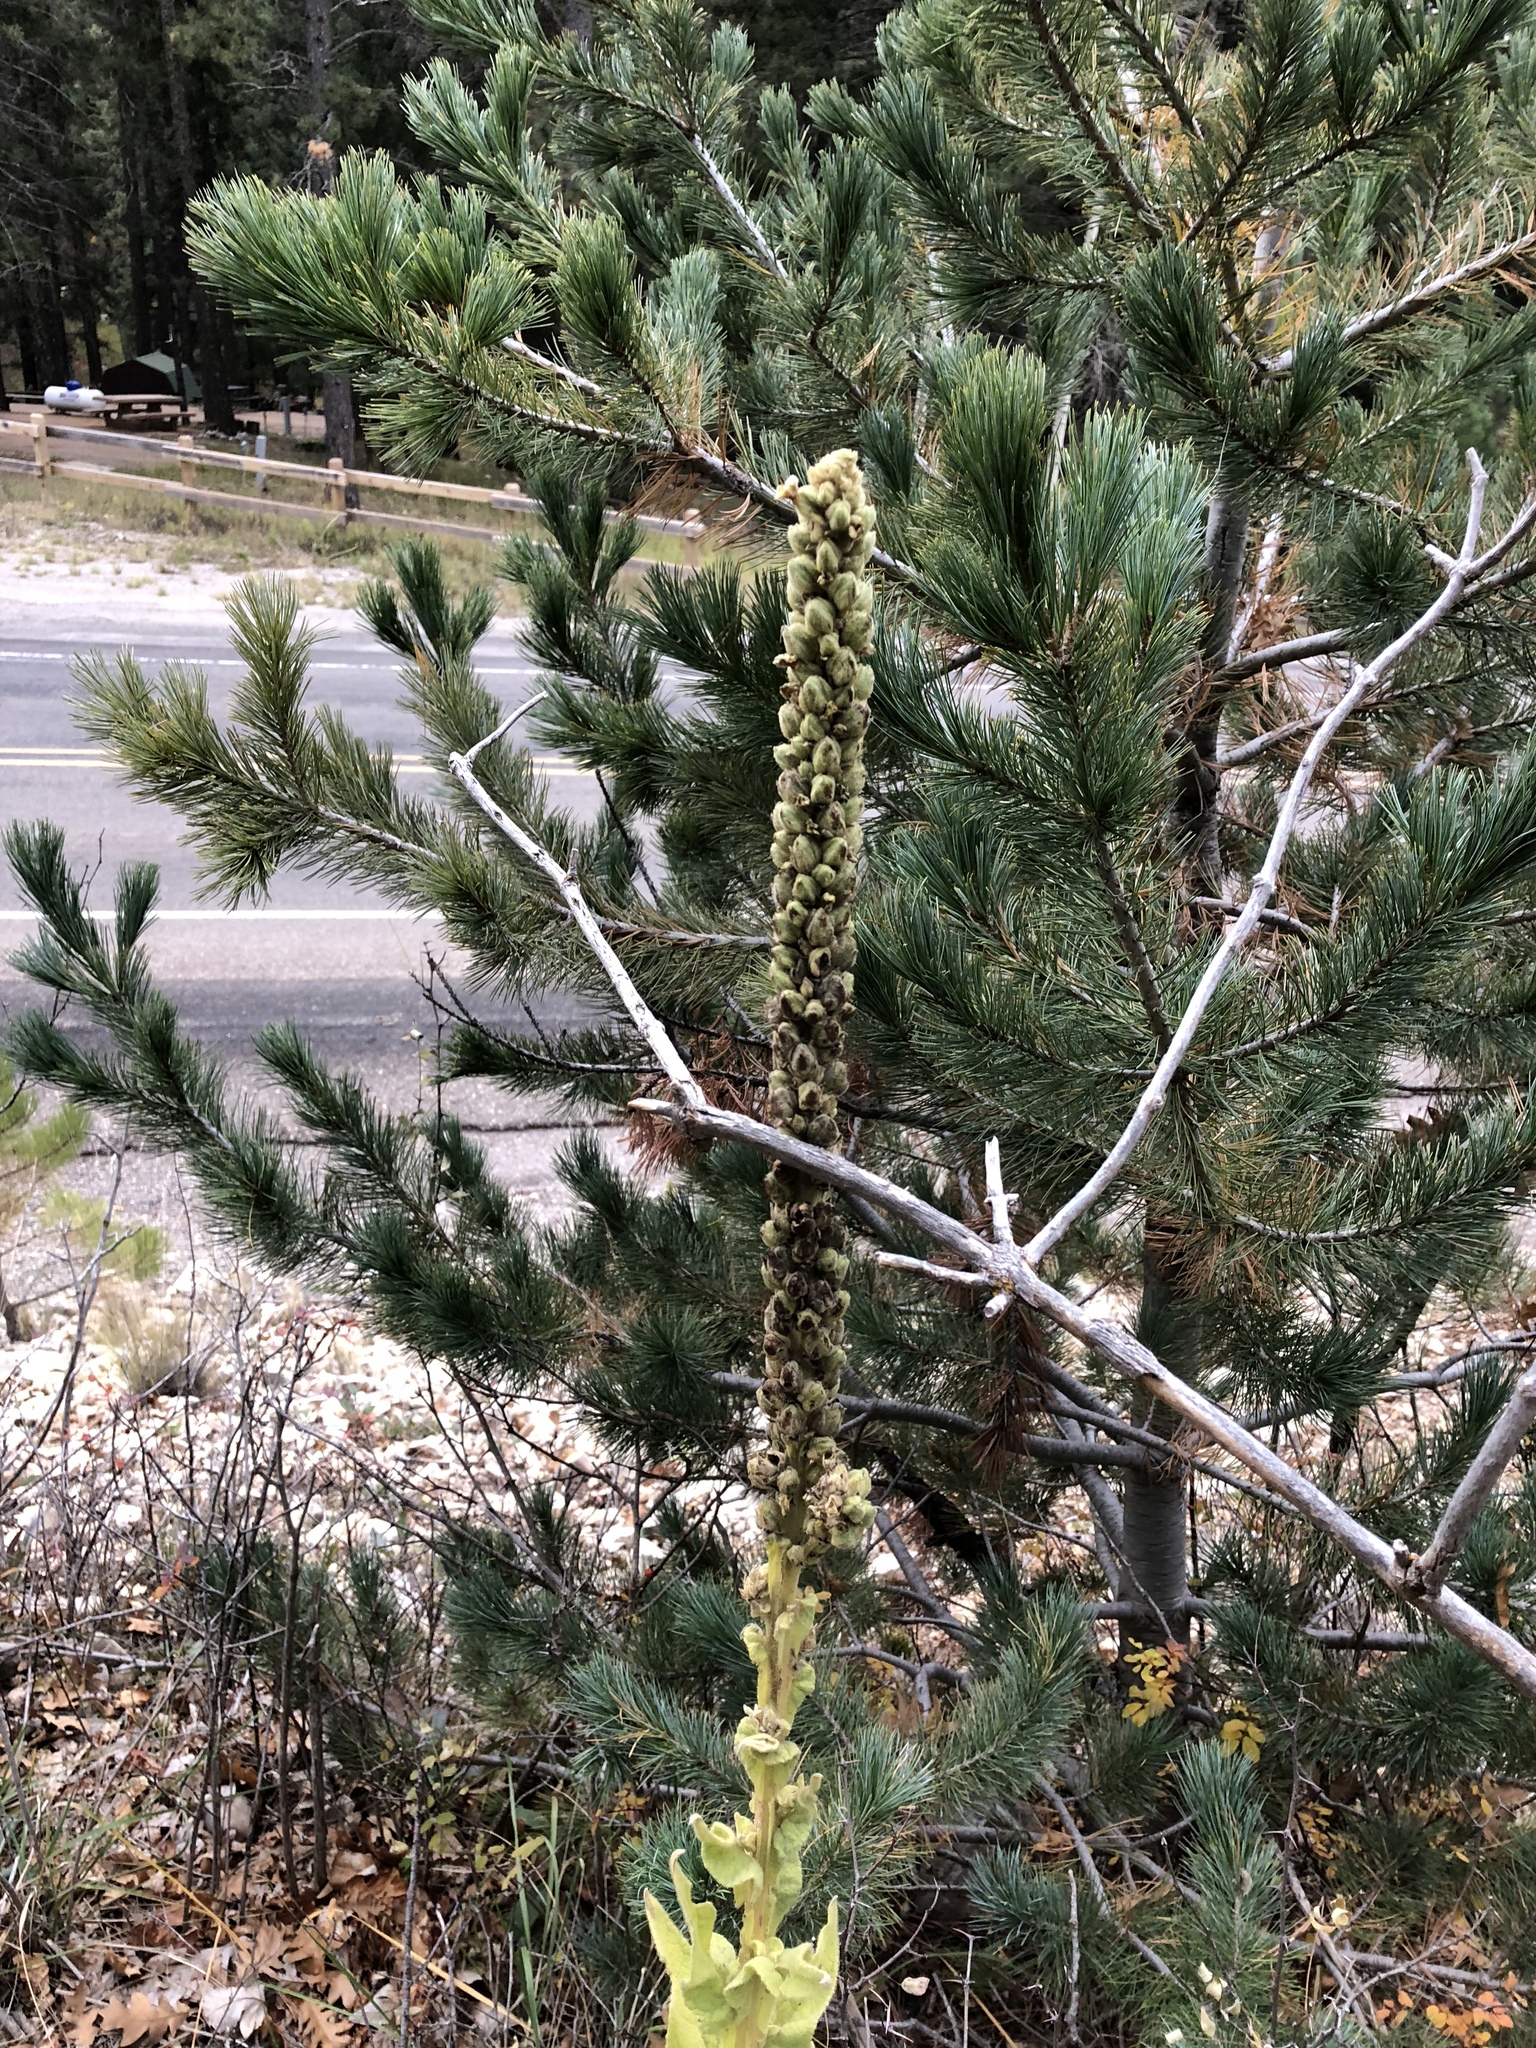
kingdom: Plantae
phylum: Tracheophyta
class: Magnoliopsida
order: Lamiales
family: Scrophulariaceae
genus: Verbascum
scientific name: Verbascum thapsus
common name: Common mullein
